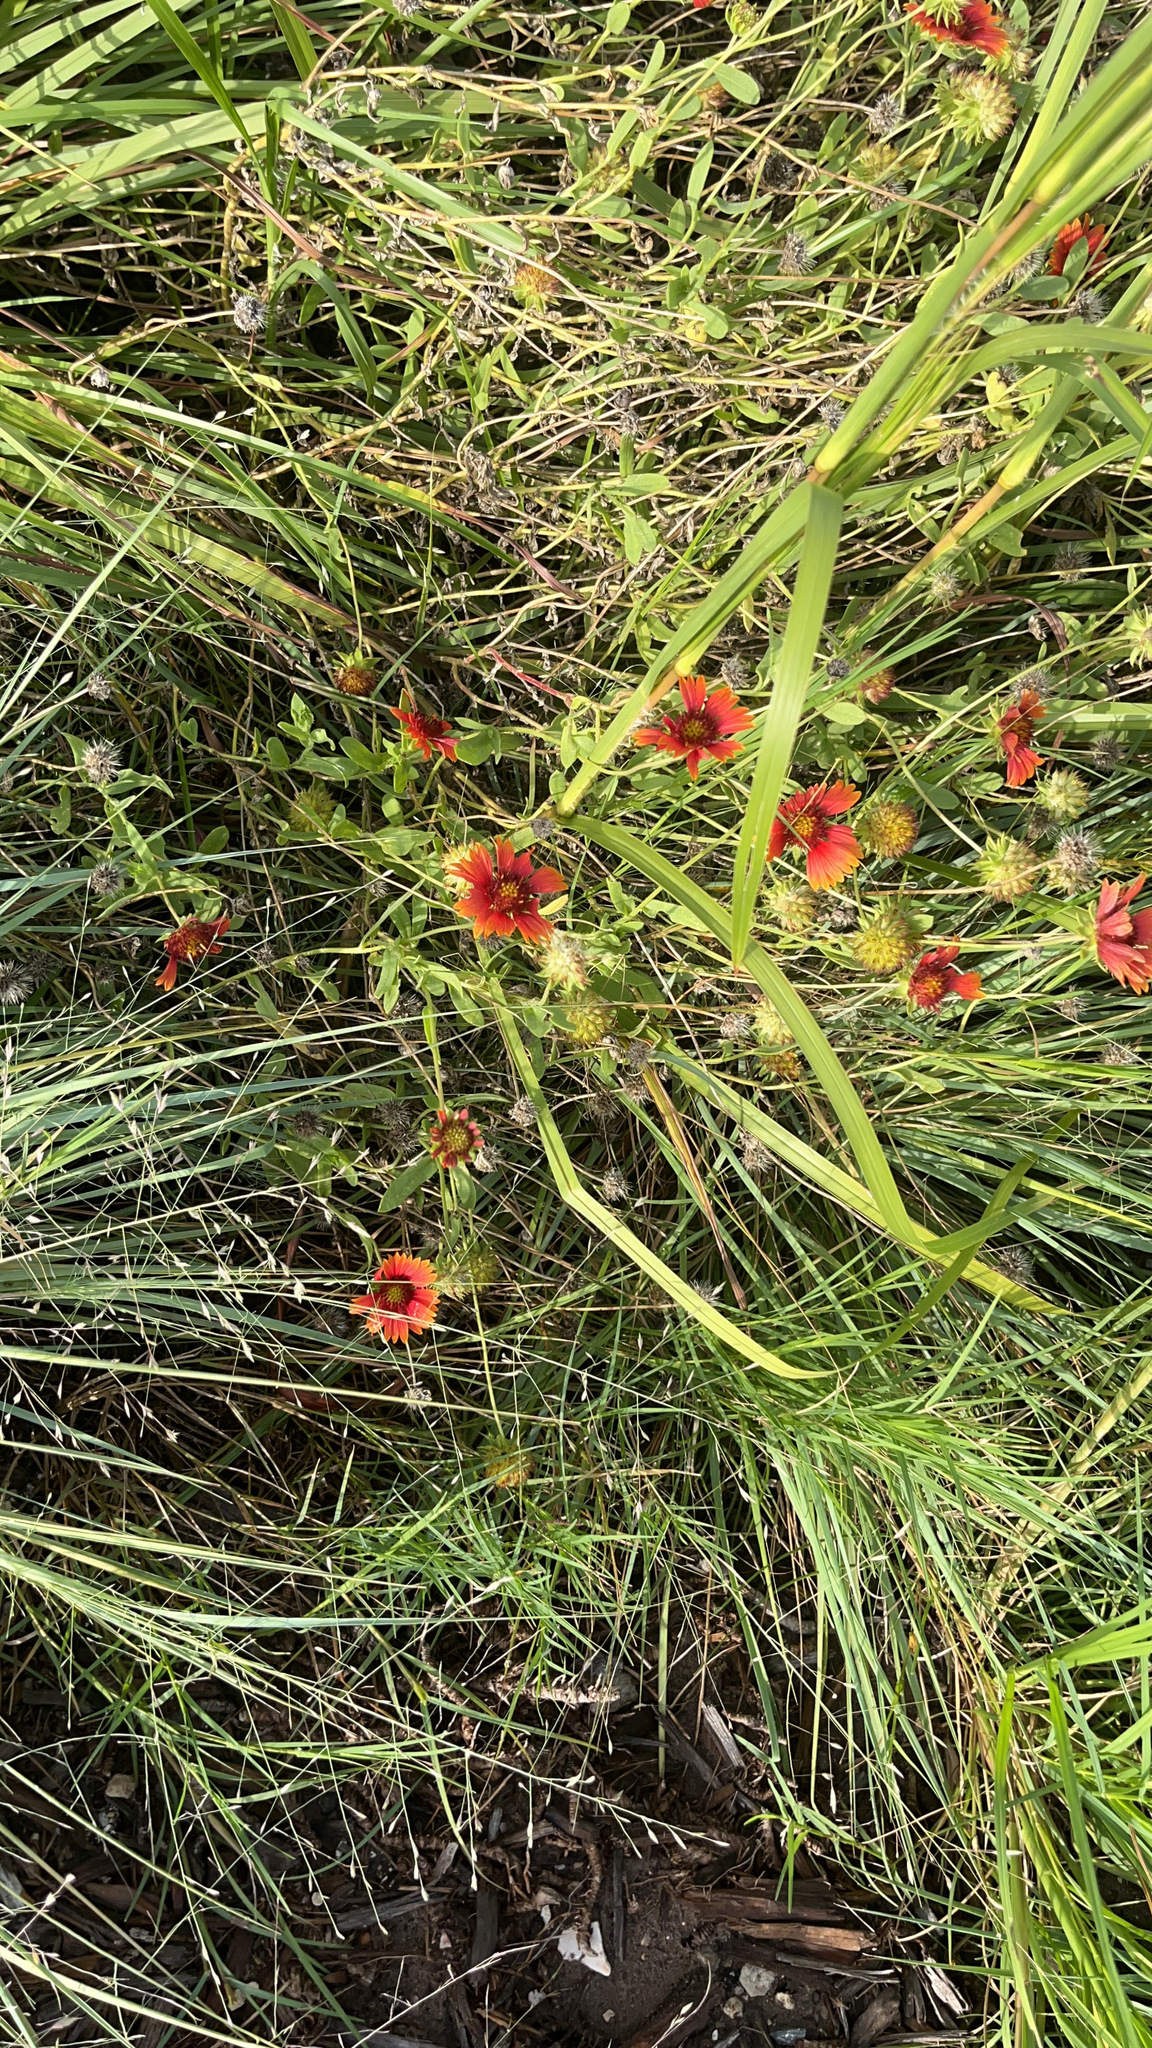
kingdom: Plantae
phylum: Tracheophyta
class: Magnoliopsida
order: Asterales
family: Asteraceae
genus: Gaillardia
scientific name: Gaillardia pulchella
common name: Firewheel
